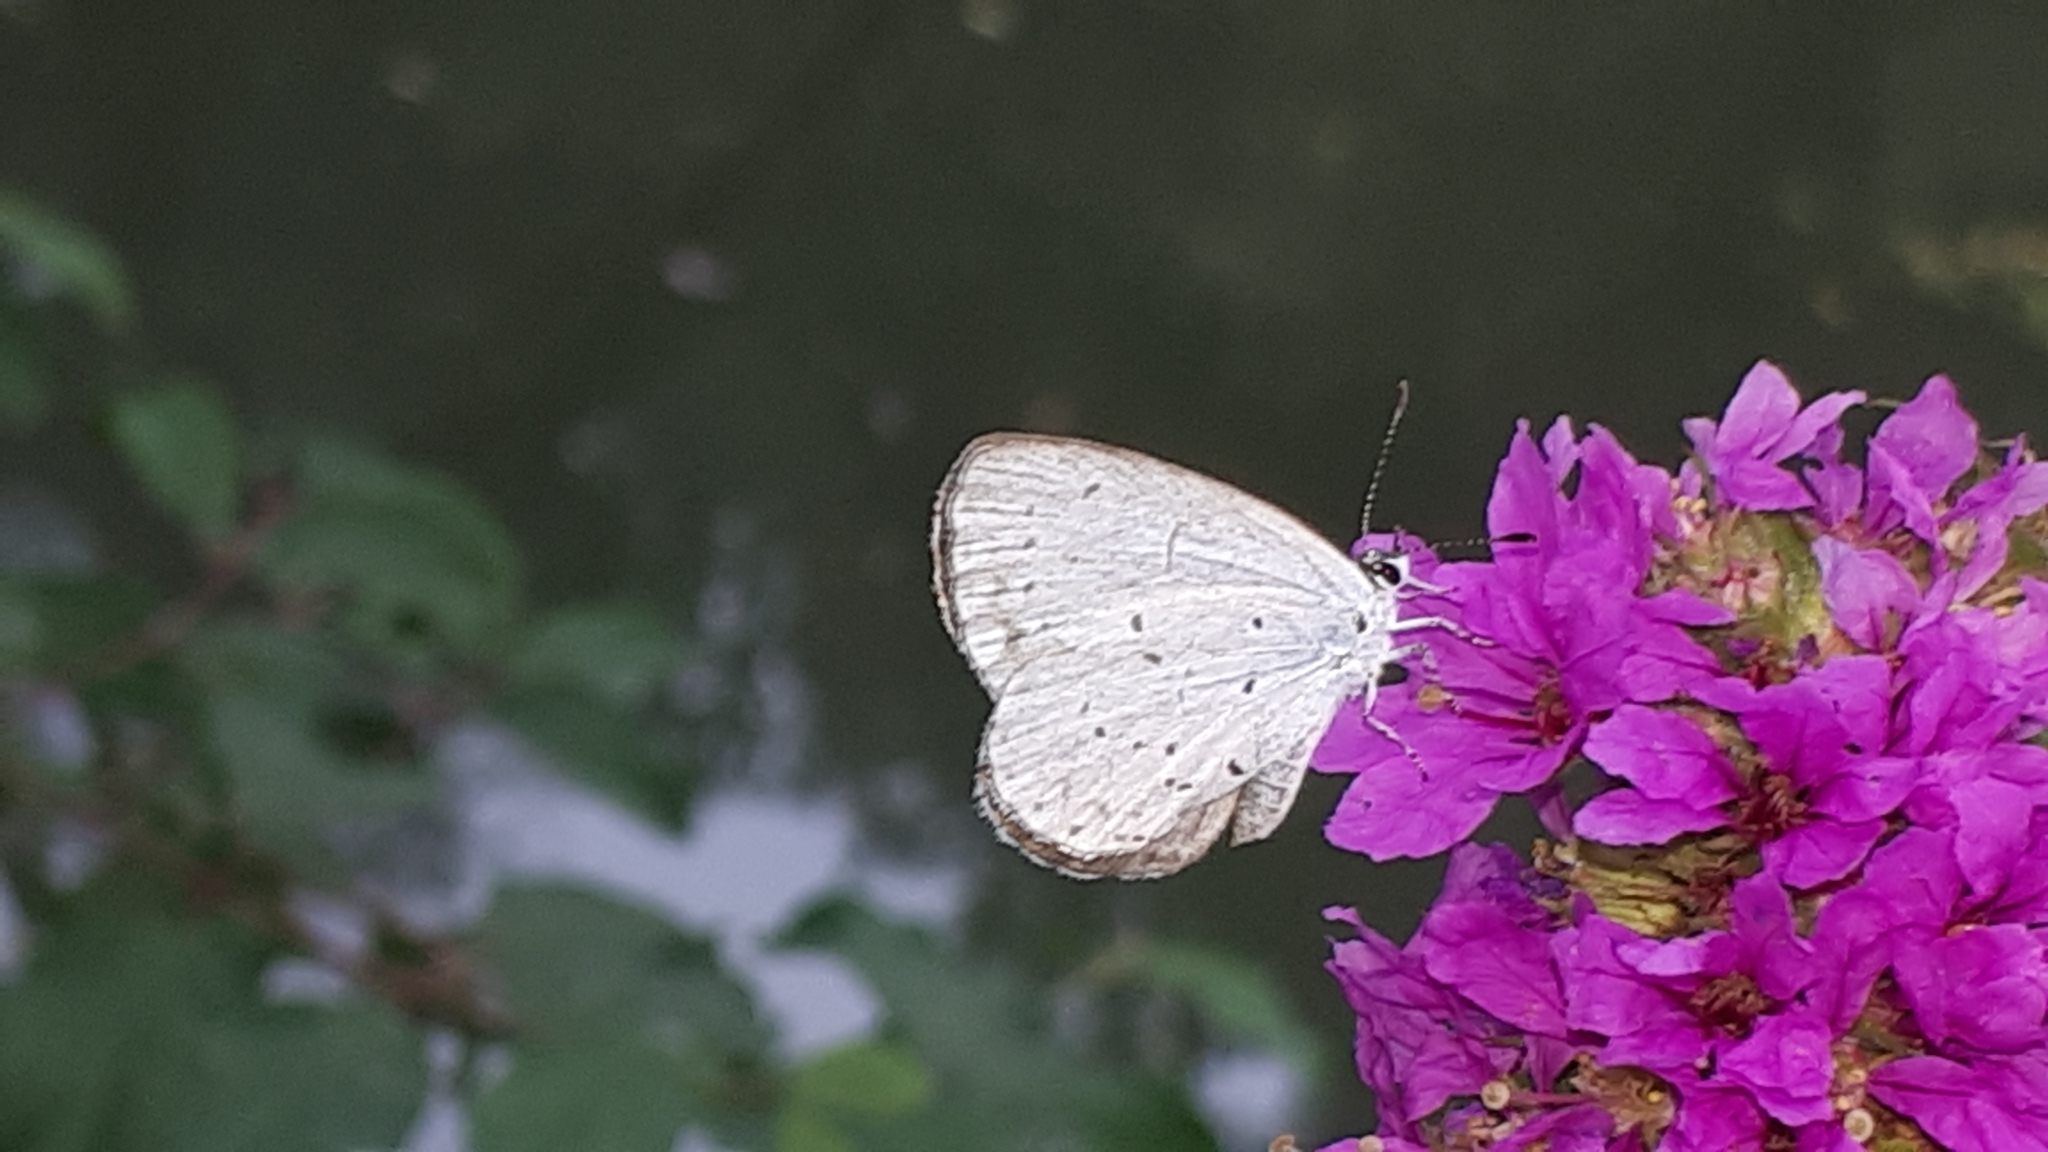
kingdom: Animalia
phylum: Arthropoda
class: Insecta
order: Lepidoptera
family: Lycaenidae
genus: Celastrina
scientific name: Celastrina argiolus
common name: Holly blue
